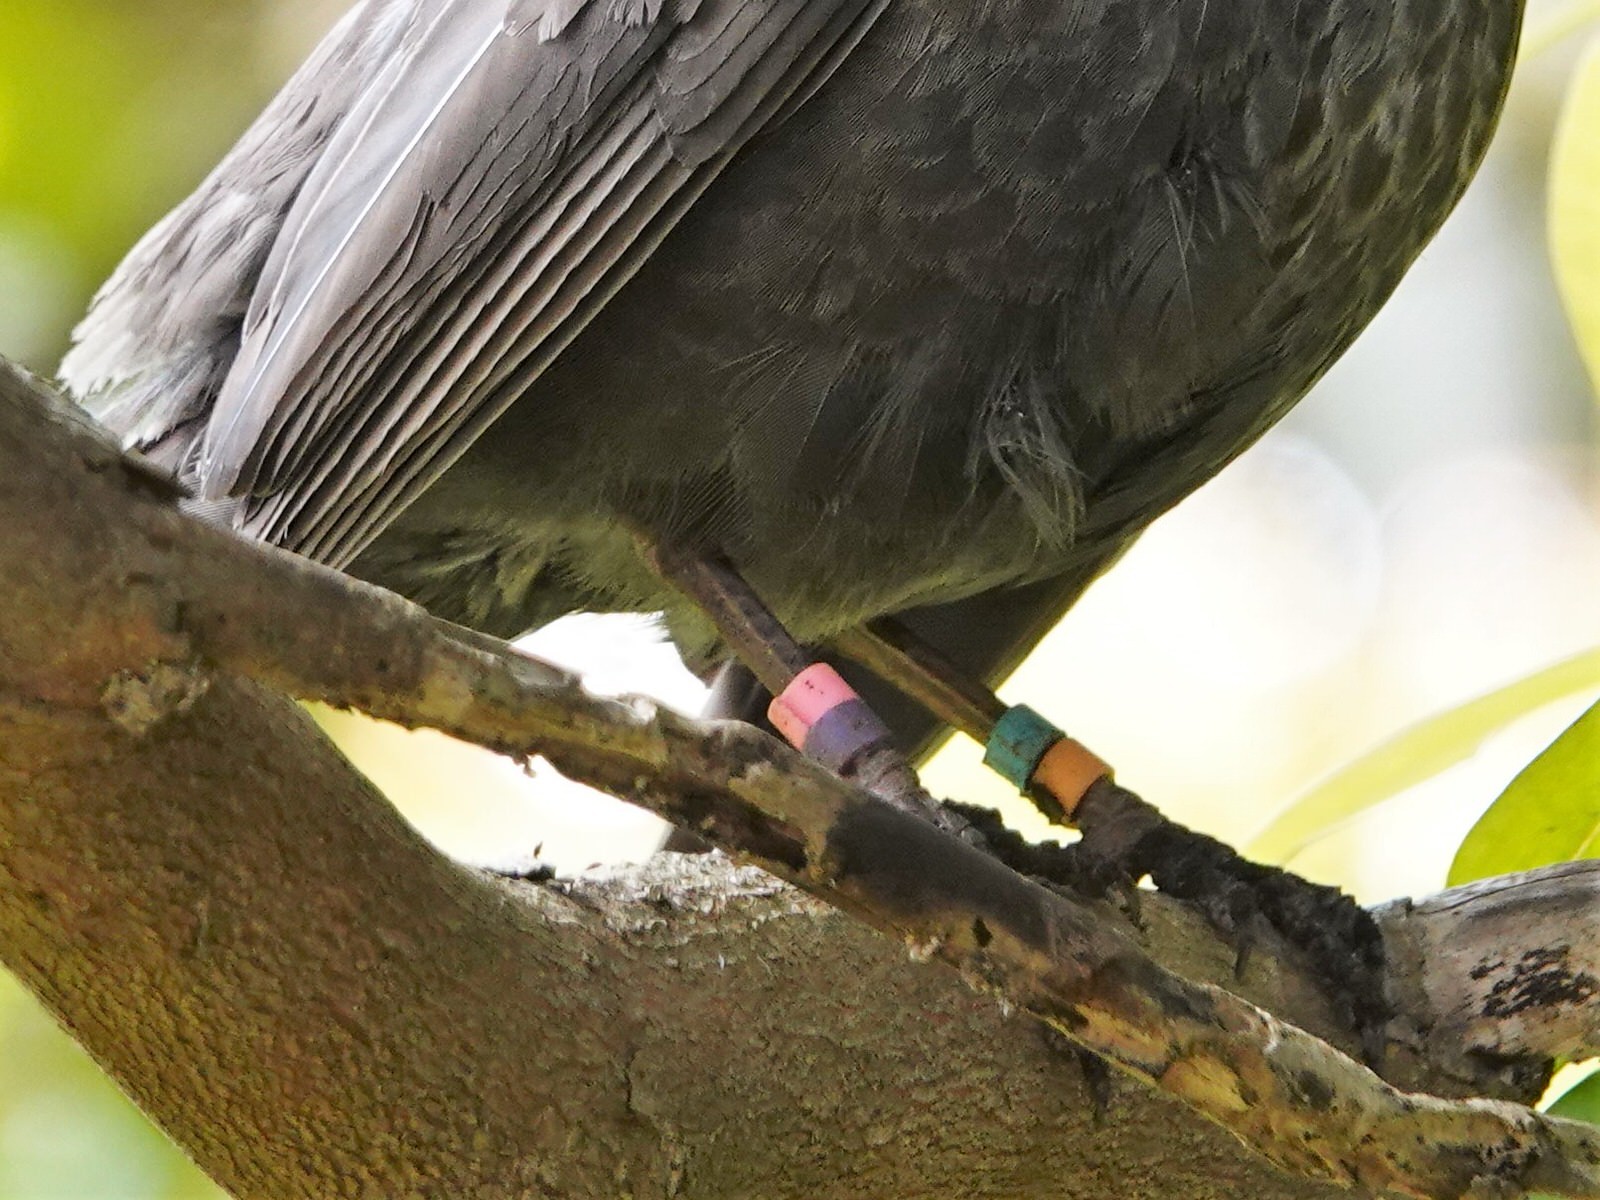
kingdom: Animalia
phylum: Chordata
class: Aves
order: Passeriformes
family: Turdidae
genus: Turdus
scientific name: Turdus merula
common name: Common blackbird
